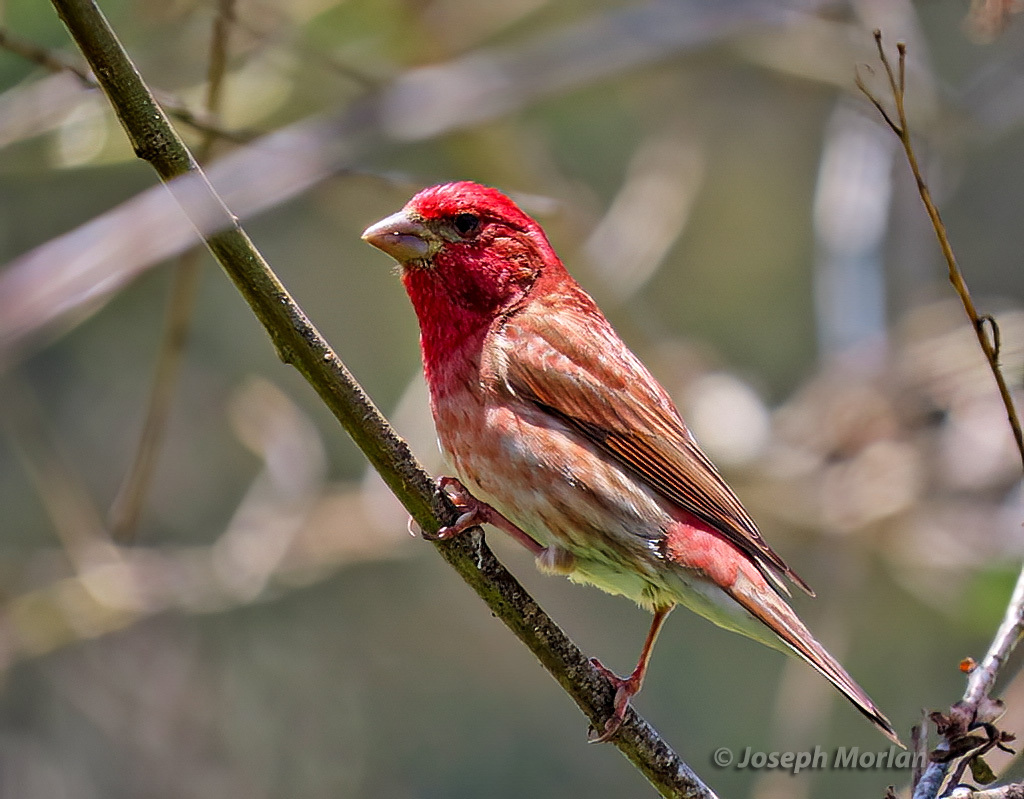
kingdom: Animalia
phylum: Chordata
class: Aves
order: Passeriformes
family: Fringillidae
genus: Haemorhous
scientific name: Haemorhous purpureus
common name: Purple finch
